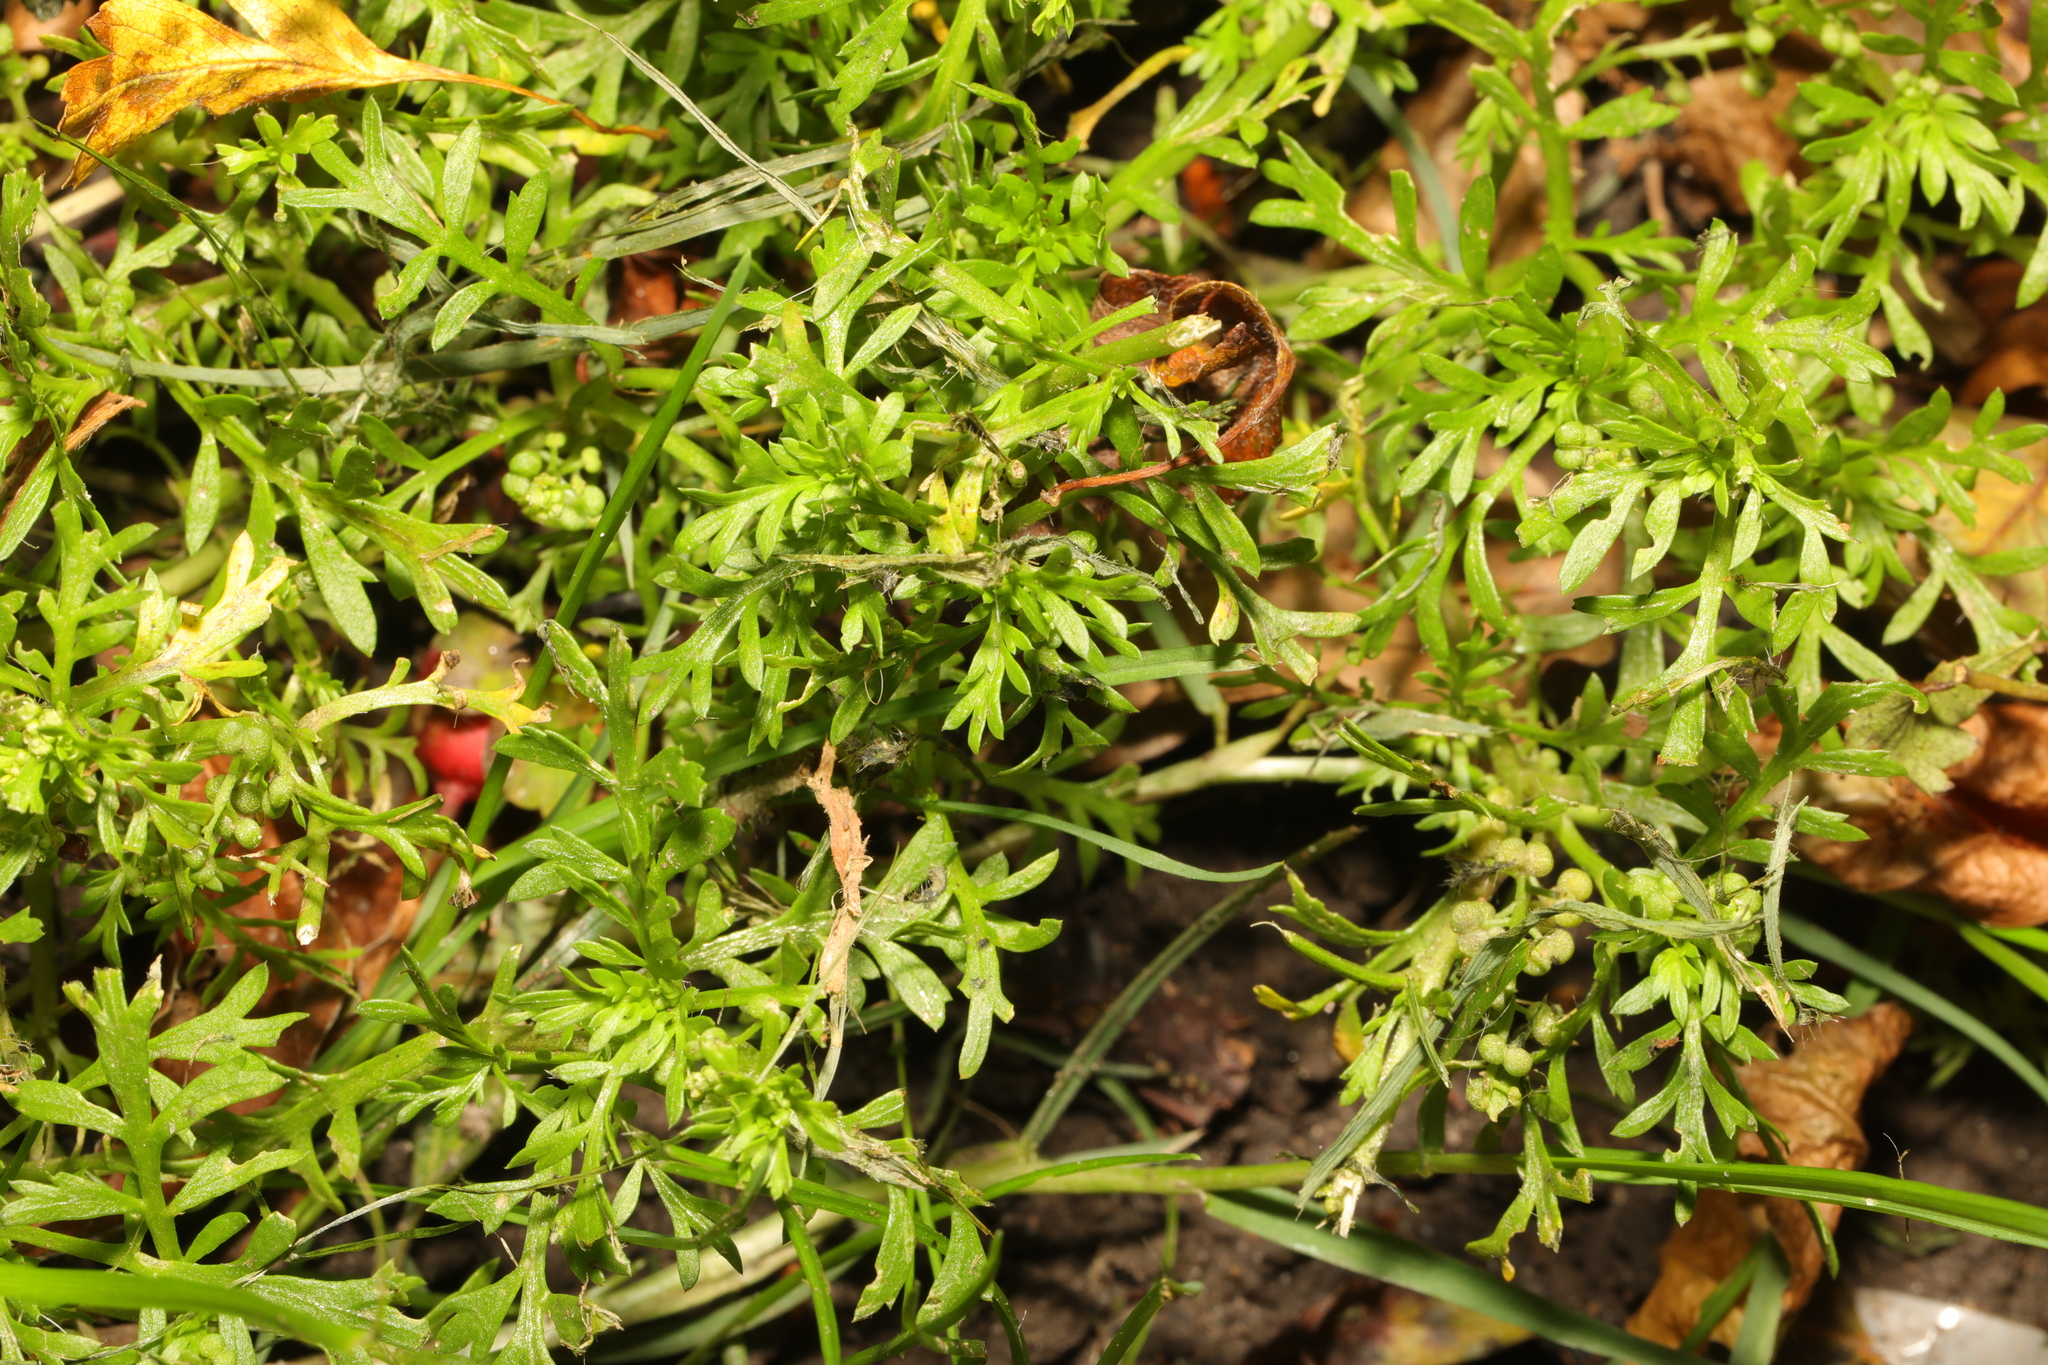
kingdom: Plantae
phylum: Tracheophyta
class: Magnoliopsida
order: Brassicales
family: Brassicaceae
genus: Lepidium
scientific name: Lepidium didymum
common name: Lesser swinecress
